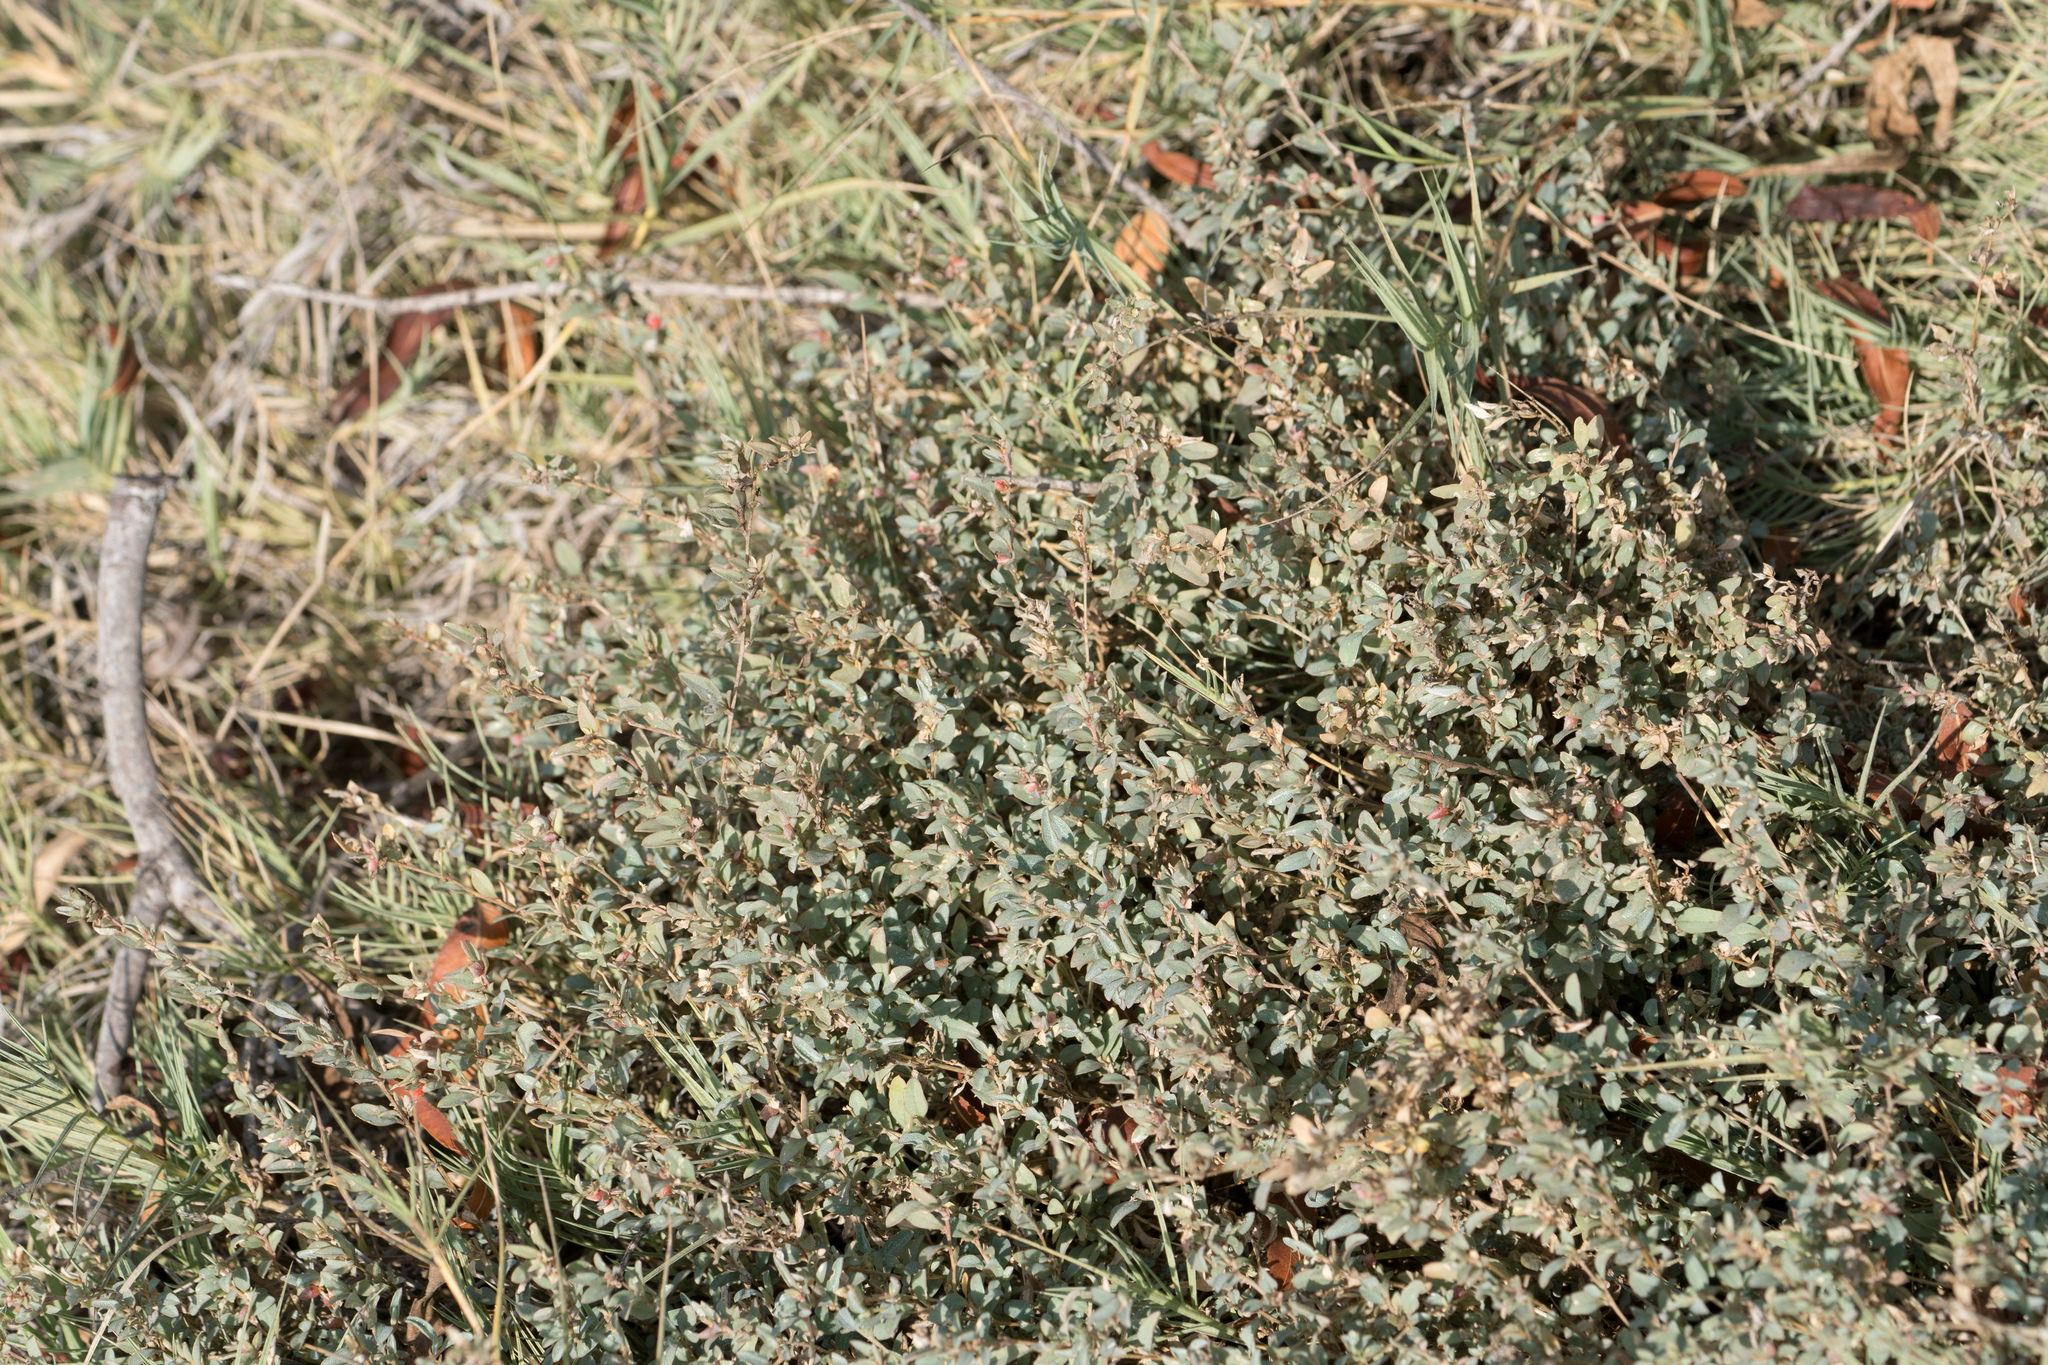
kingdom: Plantae
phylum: Tracheophyta
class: Magnoliopsida
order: Caryophyllales
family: Amaranthaceae
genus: Atriplex
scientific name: Atriplex semibaccata
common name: Australian saltbush
